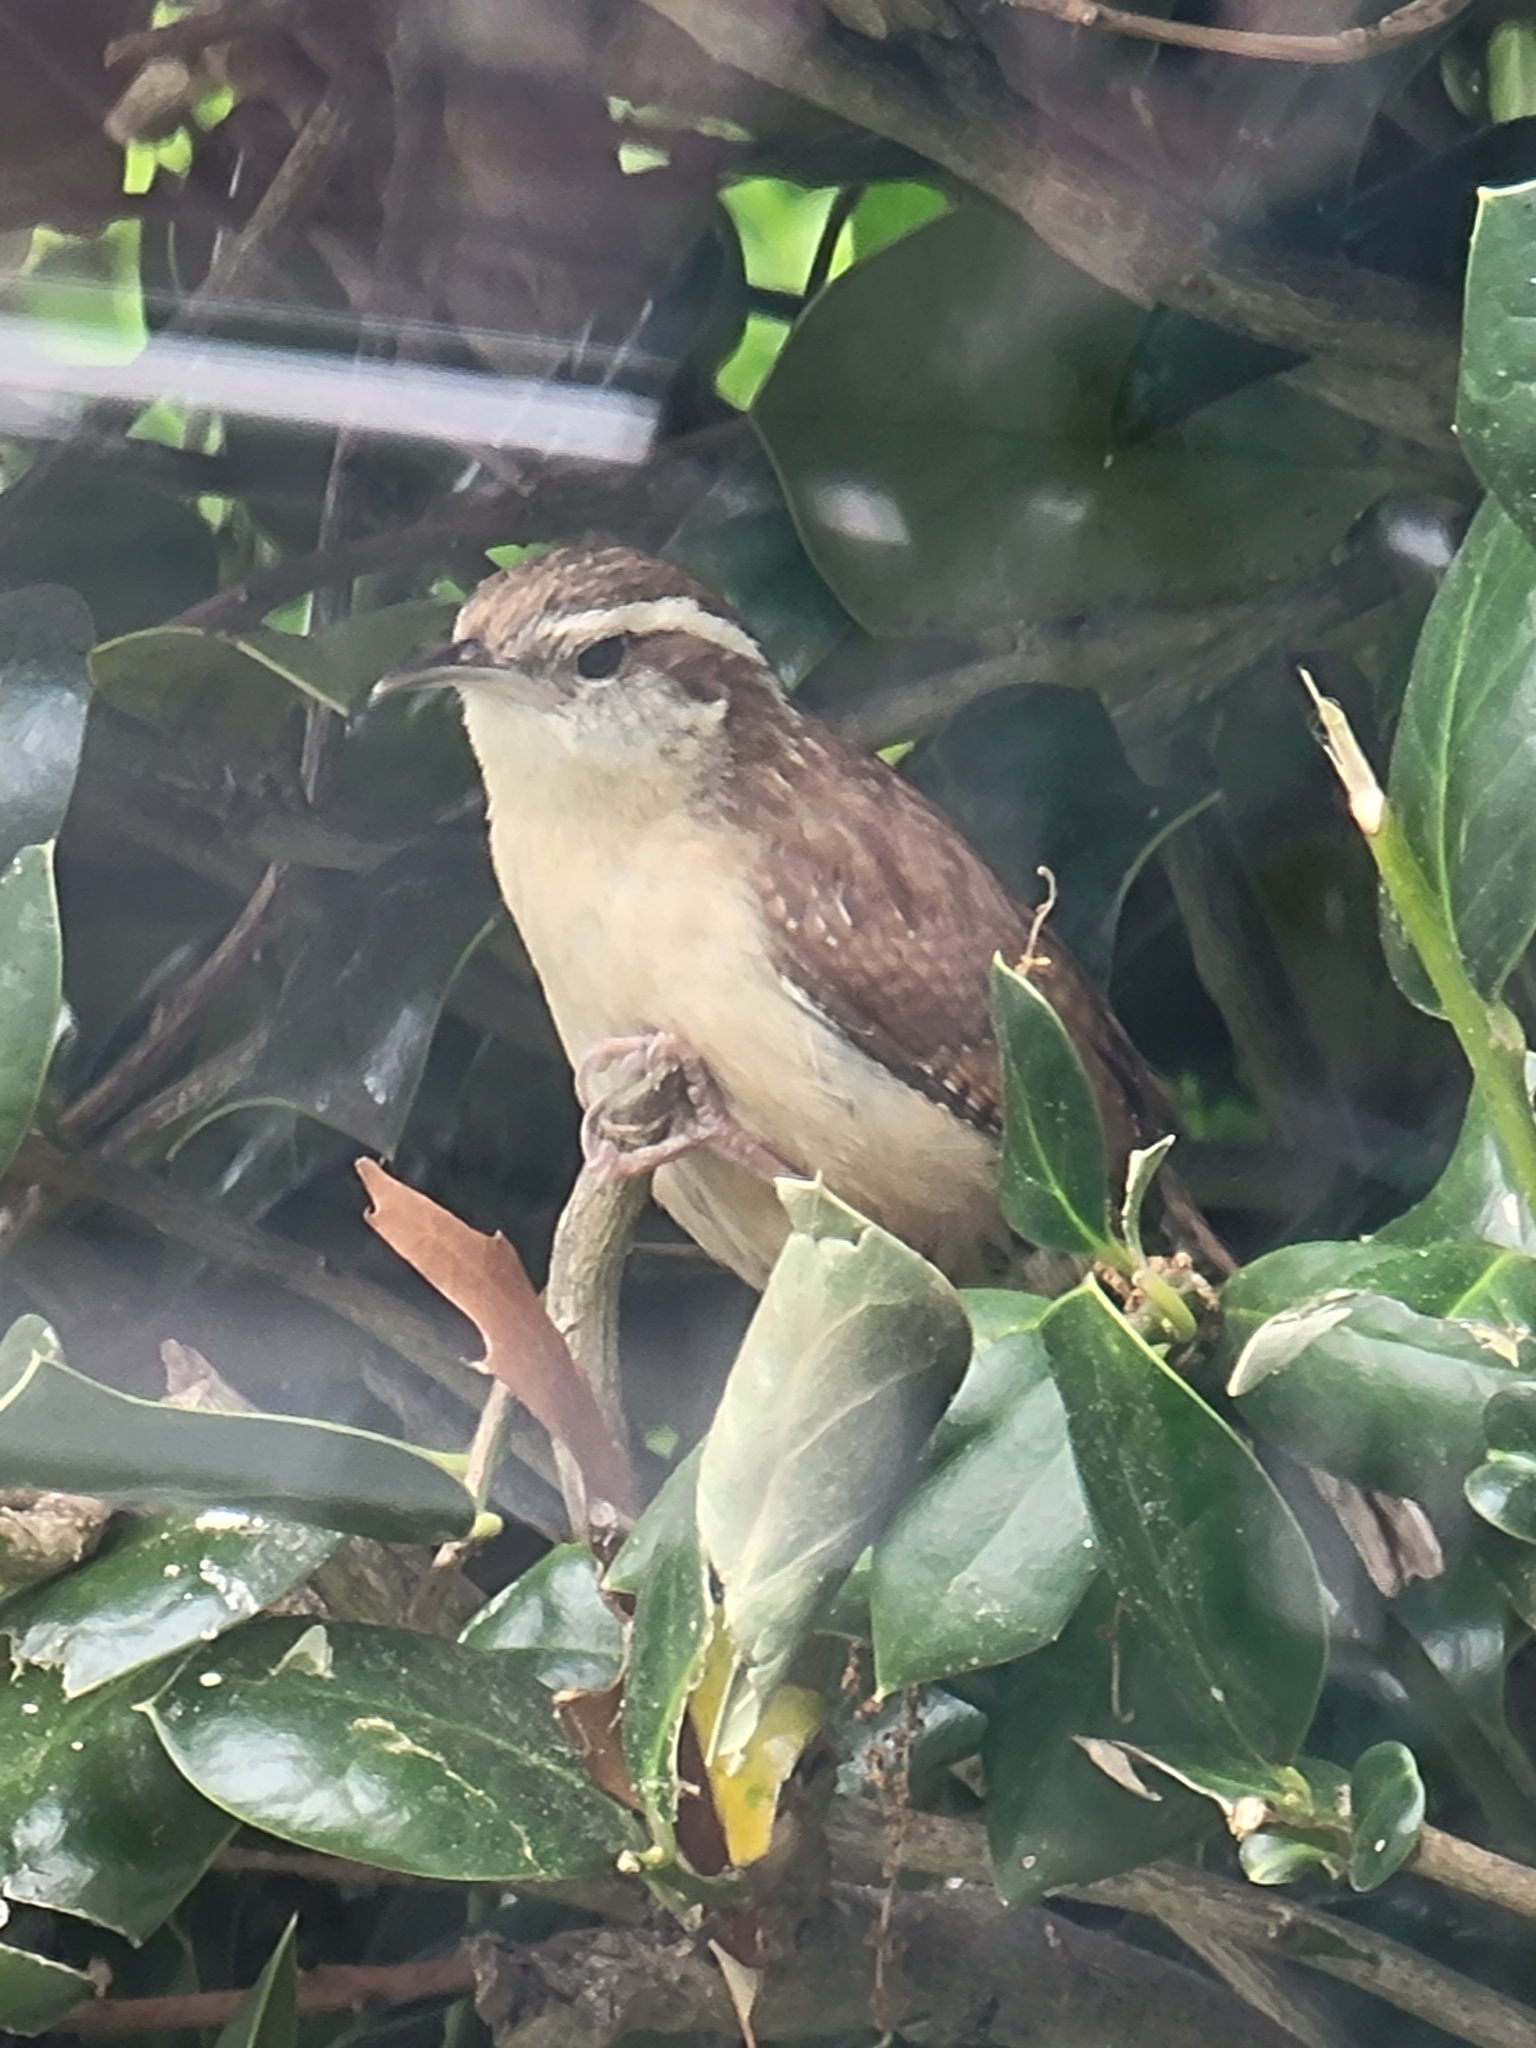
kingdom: Animalia
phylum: Chordata
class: Aves
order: Passeriformes
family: Troglodytidae
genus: Thryothorus
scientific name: Thryothorus ludovicianus
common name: Carolina wren
